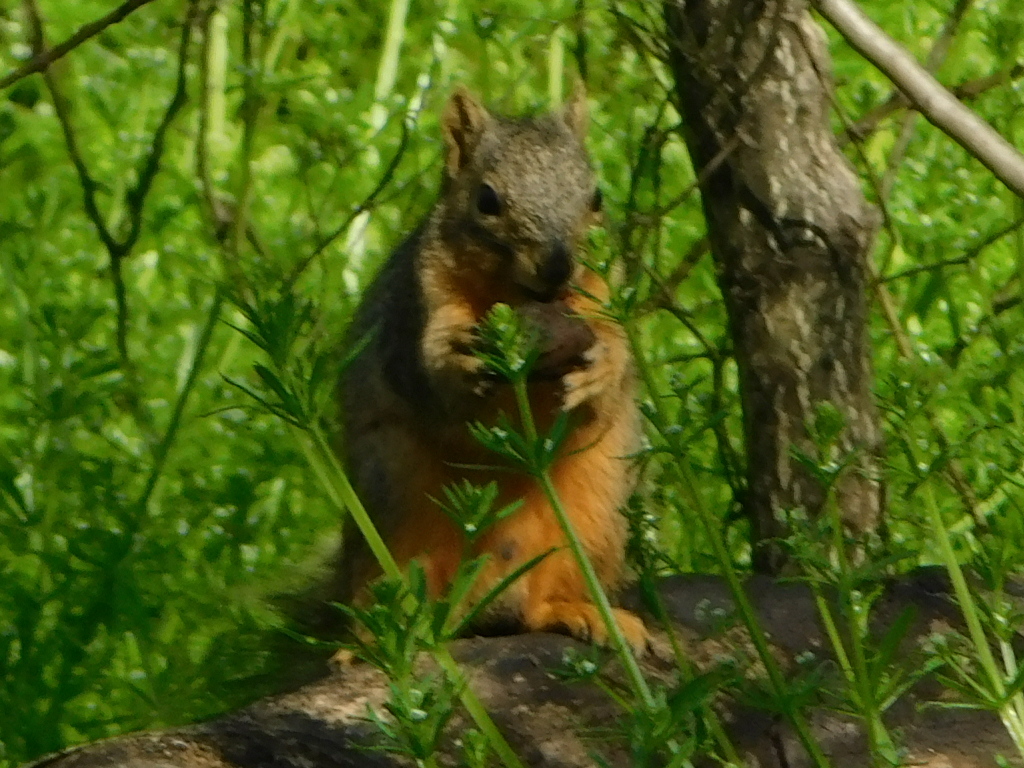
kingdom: Animalia
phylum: Chordata
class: Mammalia
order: Rodentia
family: Sciuridae
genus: Sciurus
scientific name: Sciurus niger
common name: Fox squirrel
